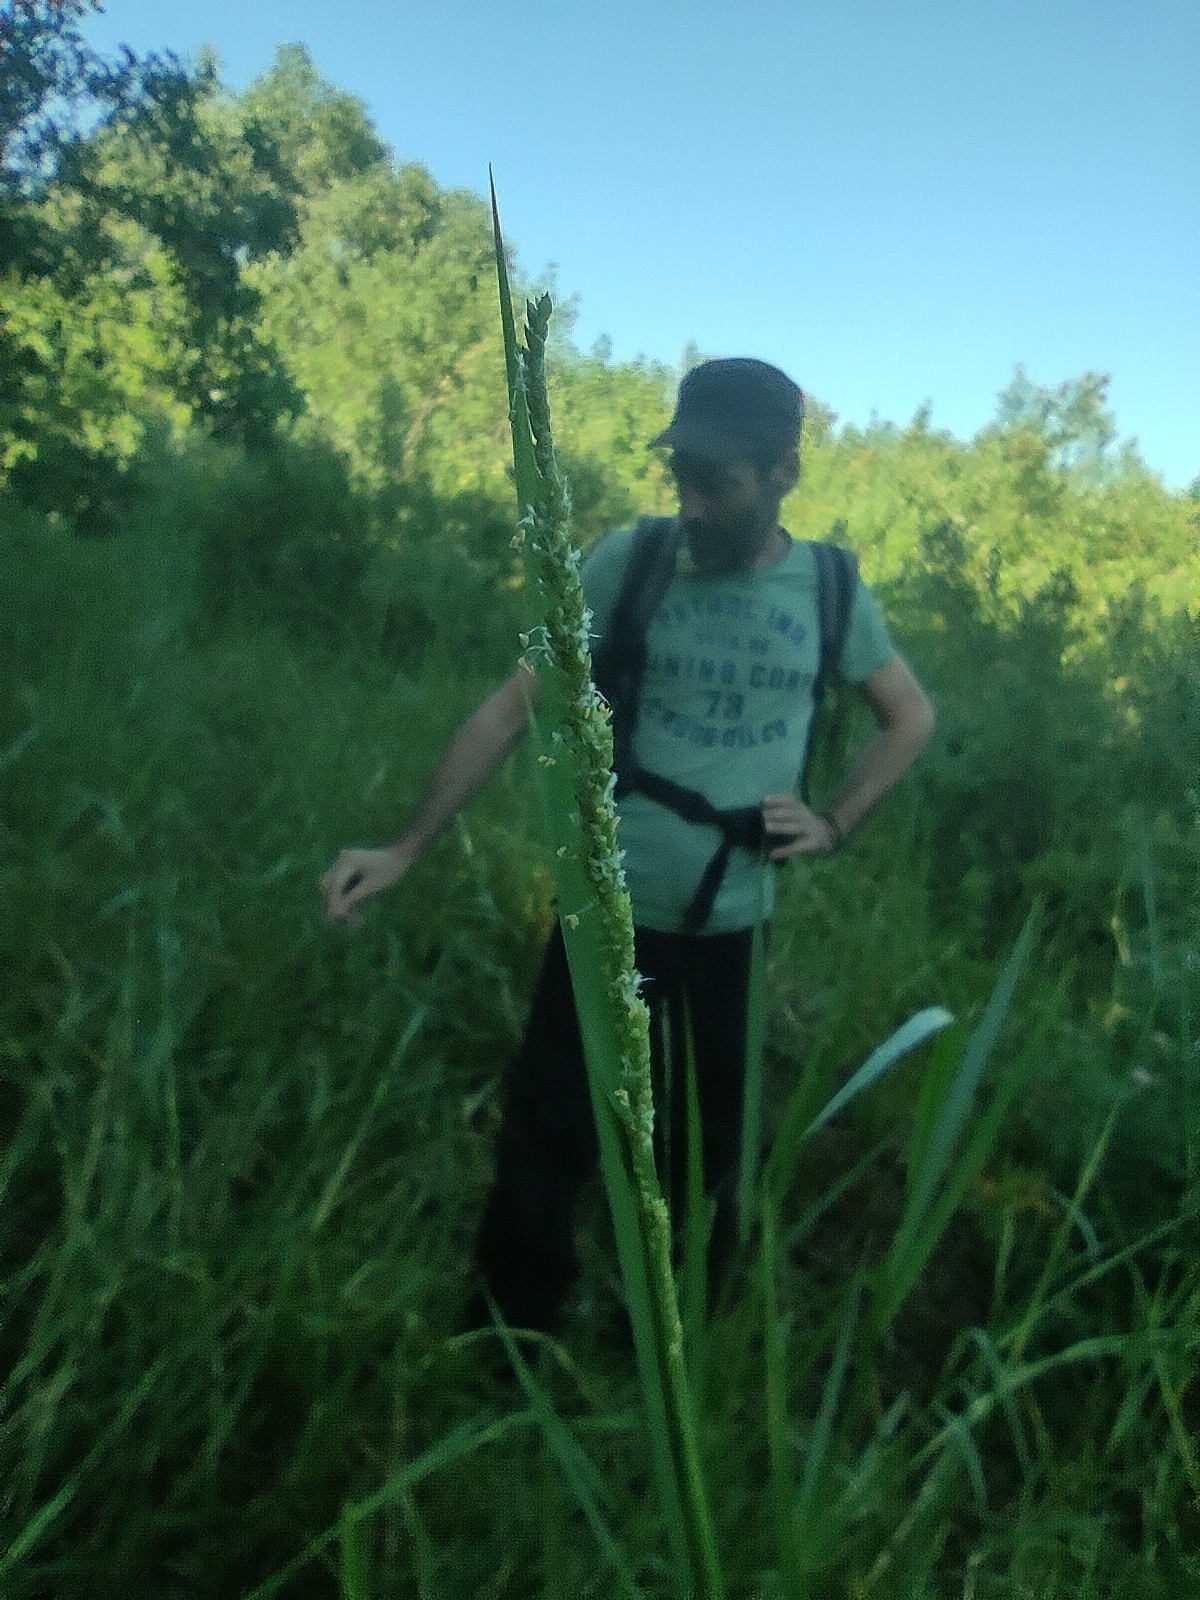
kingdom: Plantae
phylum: Tracheophyta
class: Liliopsida
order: Poales
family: Poaceae
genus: Setaria
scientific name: Setaria geminata
